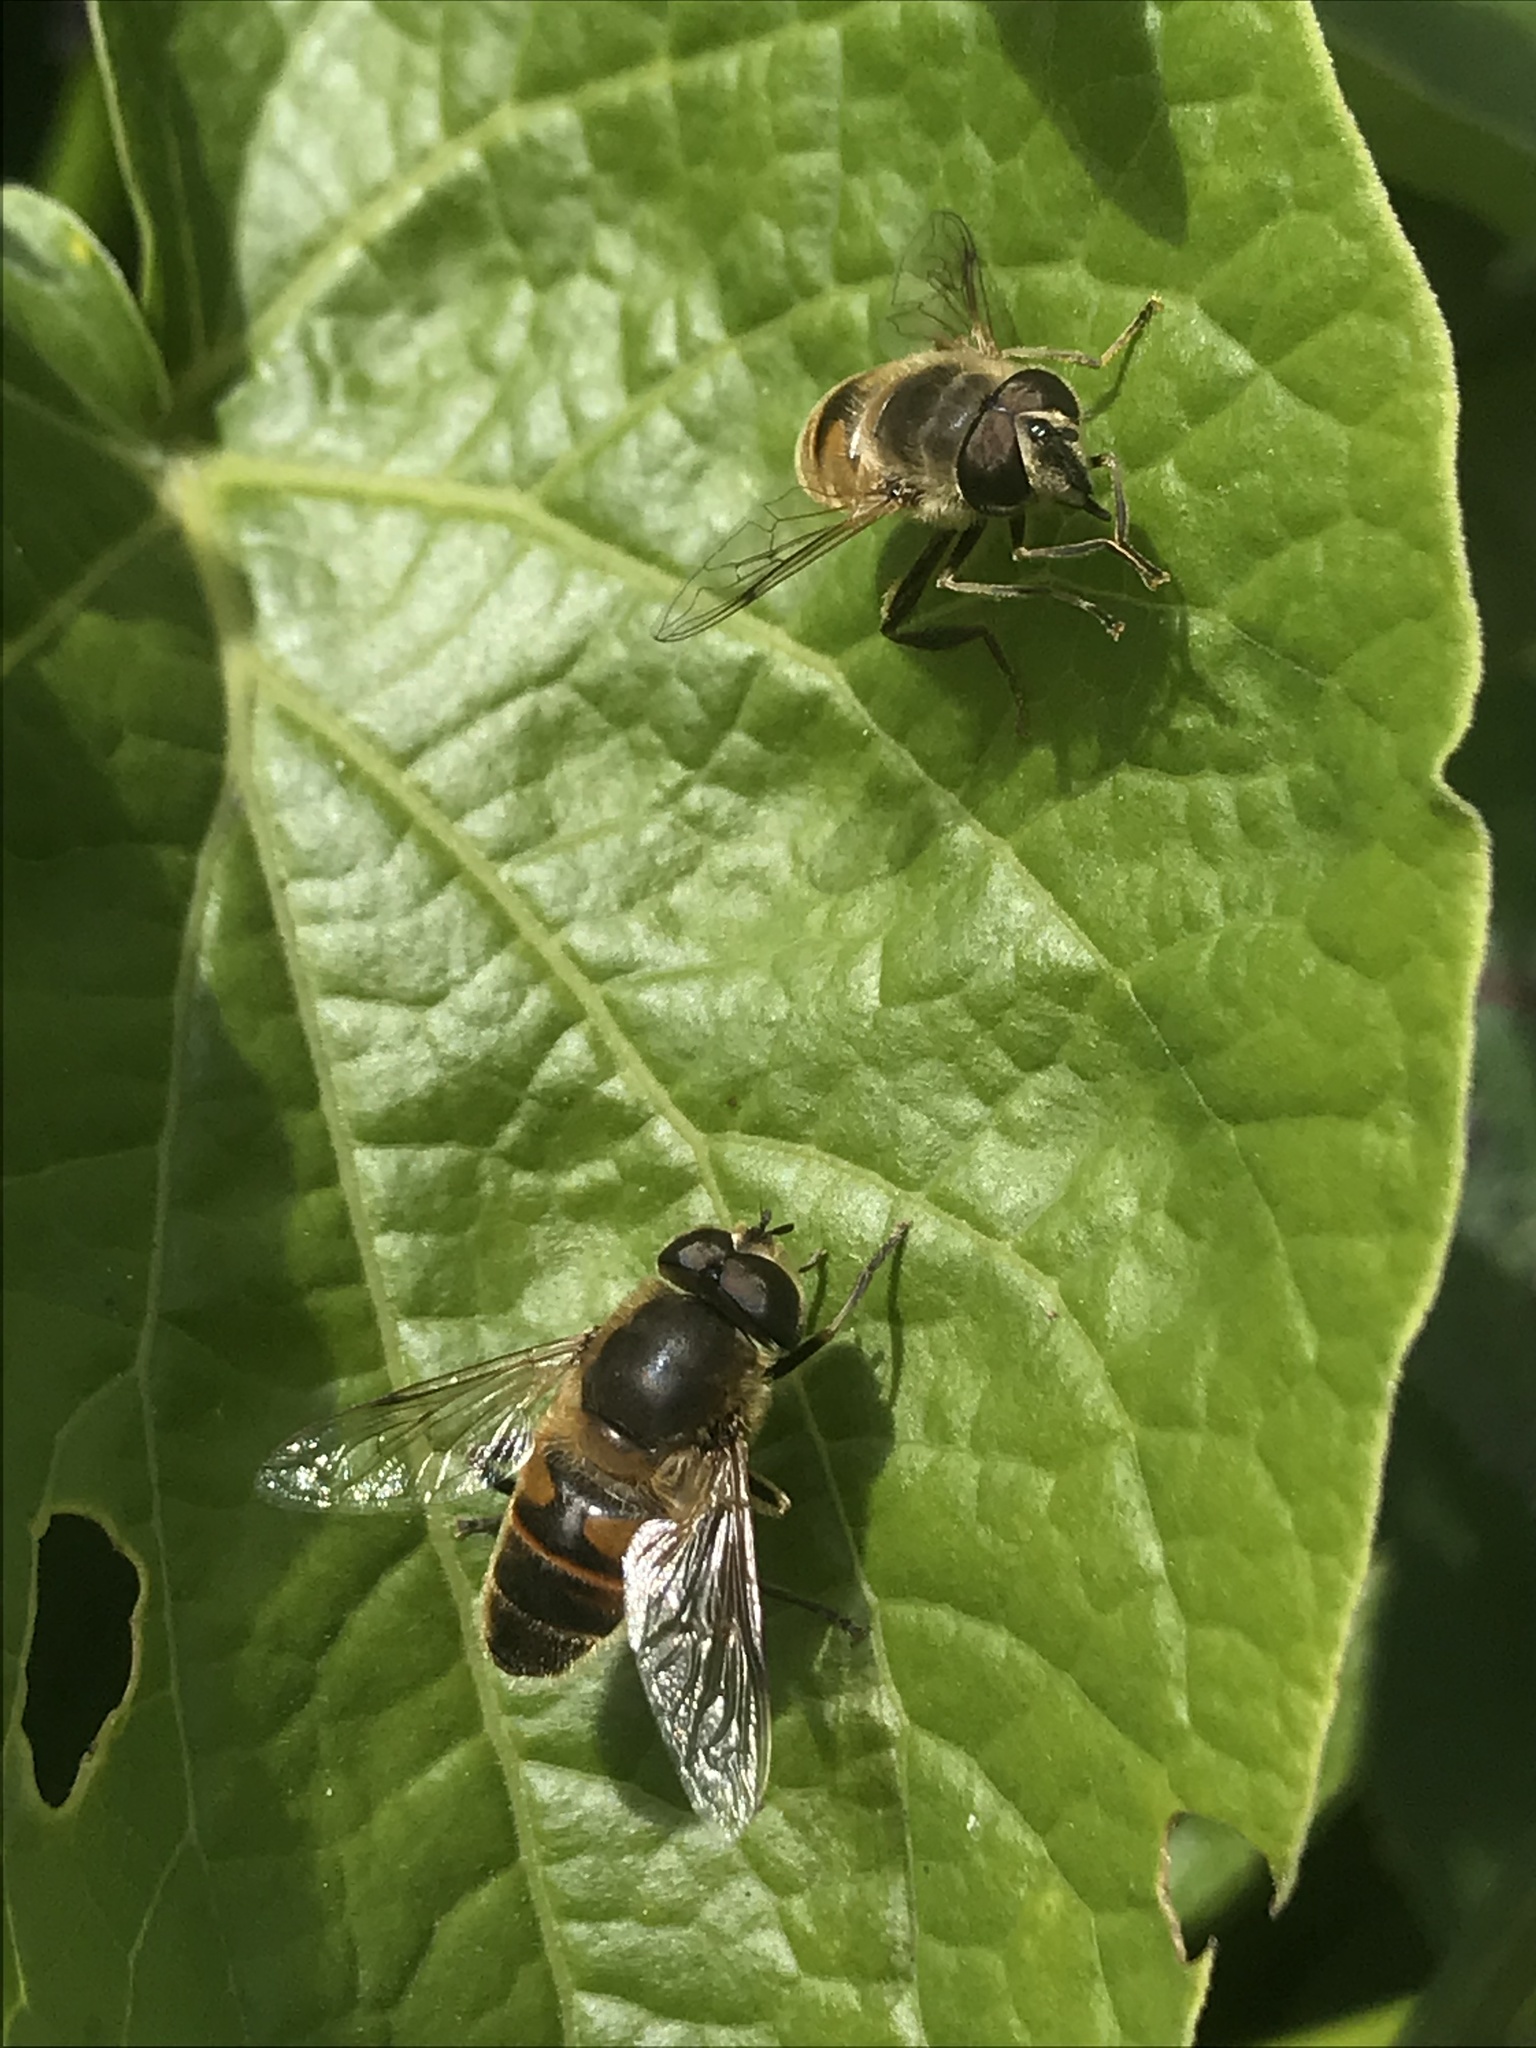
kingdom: Animalia
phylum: Arthropoda
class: Insecta
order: Diptera
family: Syrphidae
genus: Eristalis
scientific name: Eristalis tenax
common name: Drone fly
